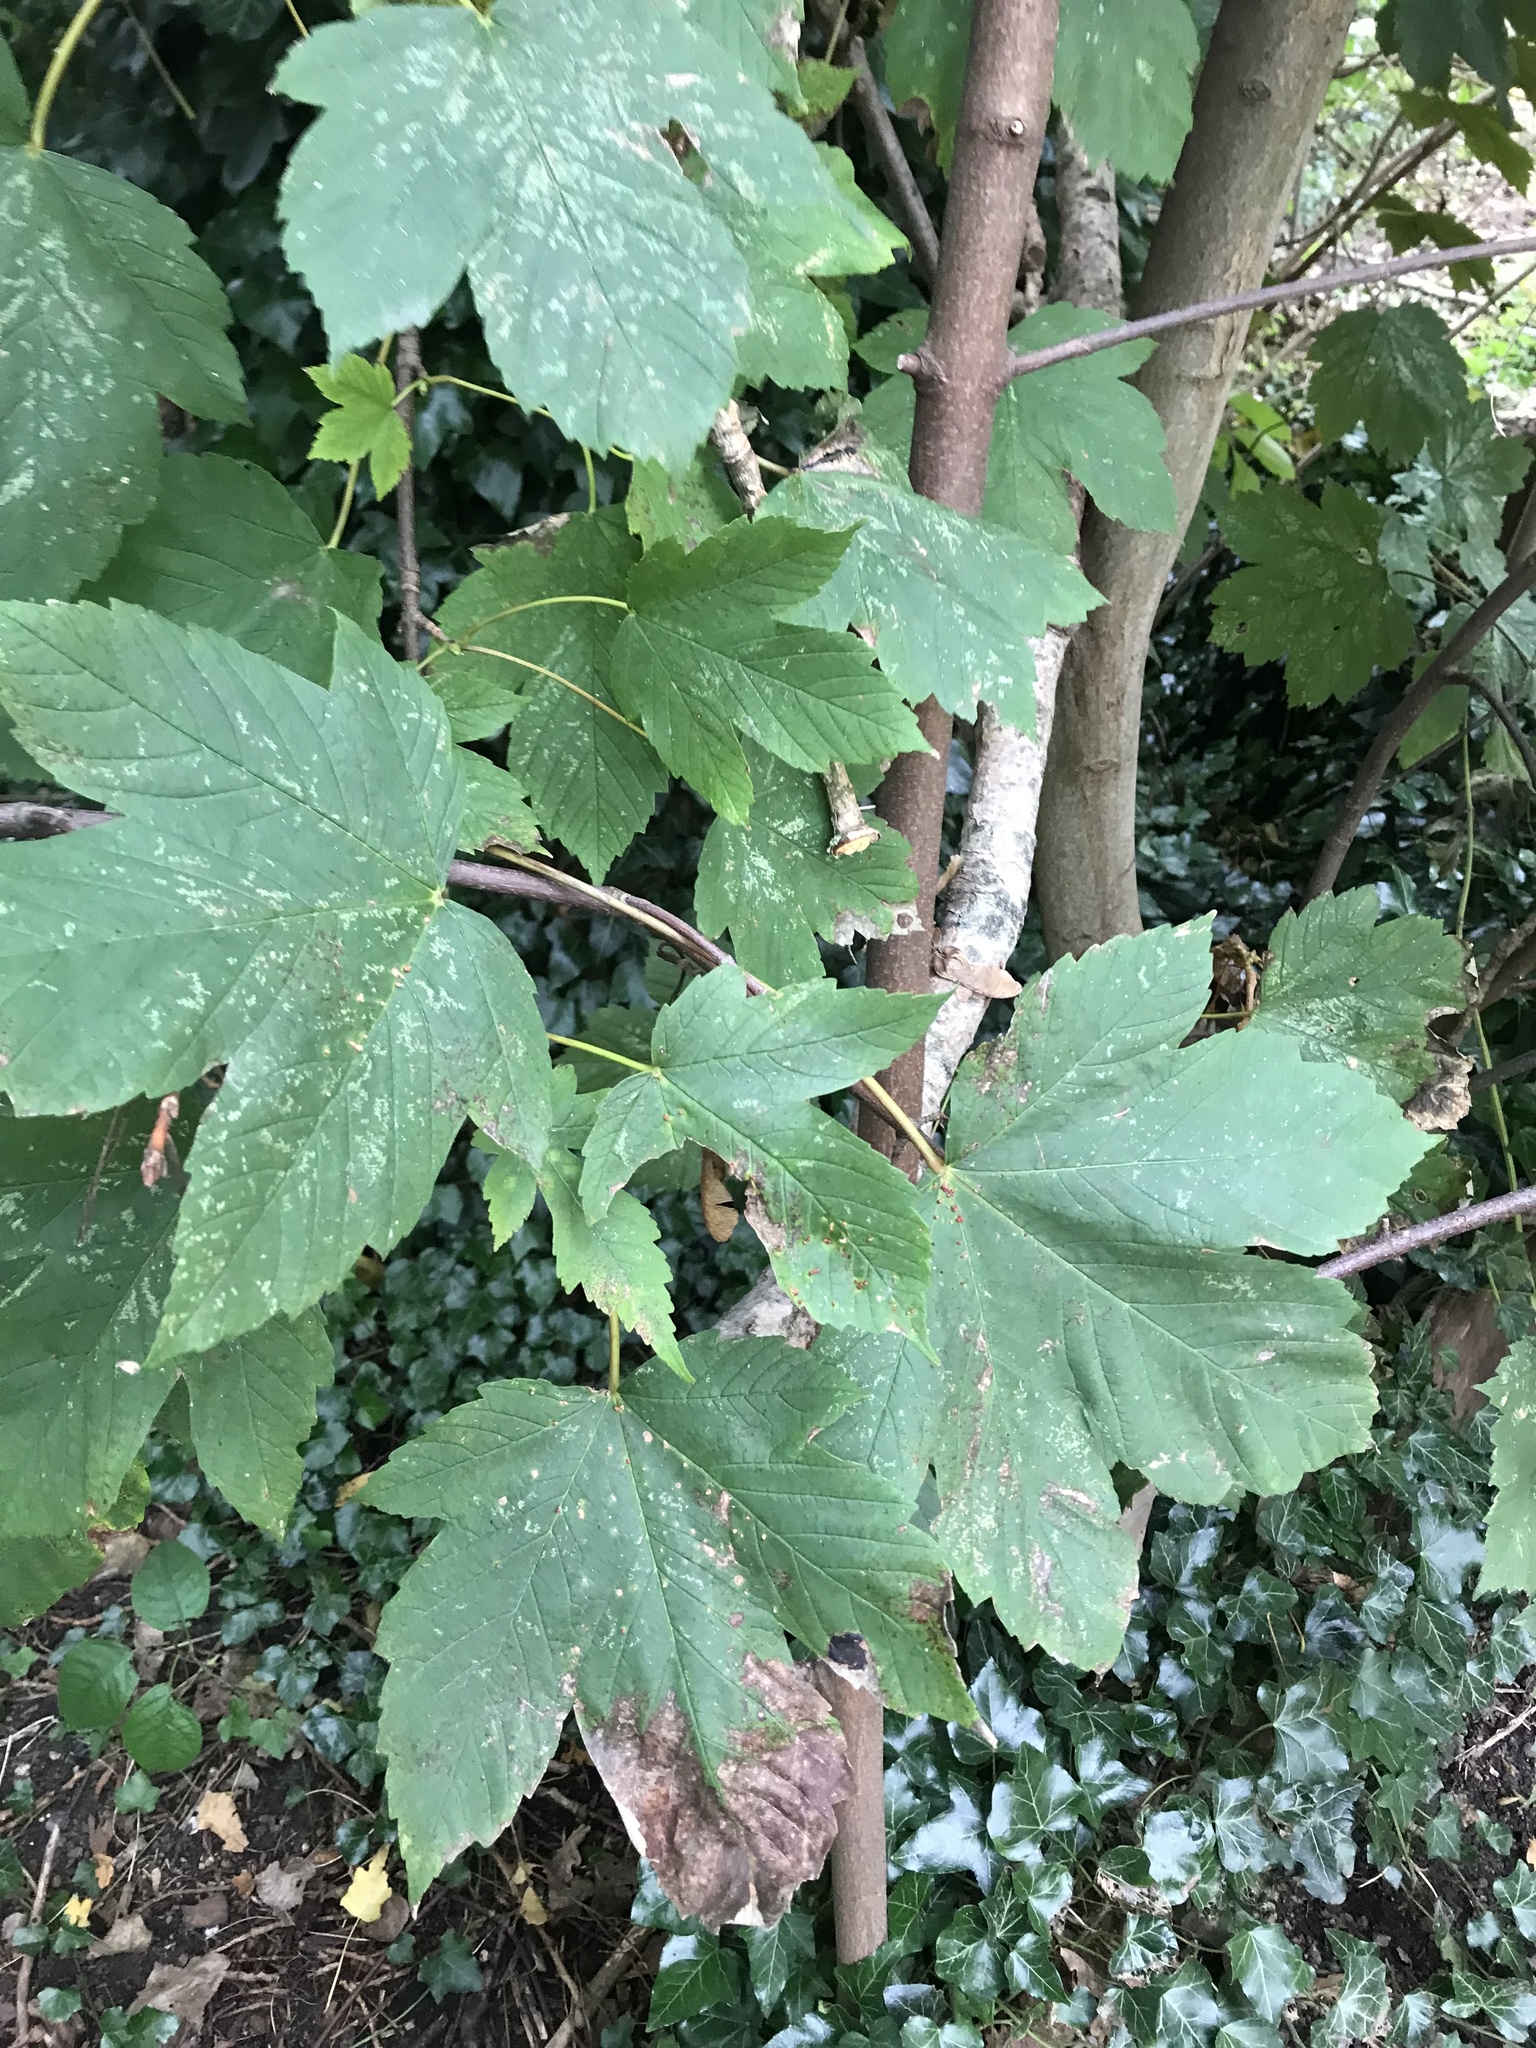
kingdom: Plantae
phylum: Tracheophyta
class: Magnoliopsida
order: Sapindales
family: Sapindaceae
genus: Acer
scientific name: Acer pseudoplatanus
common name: Sycamore
